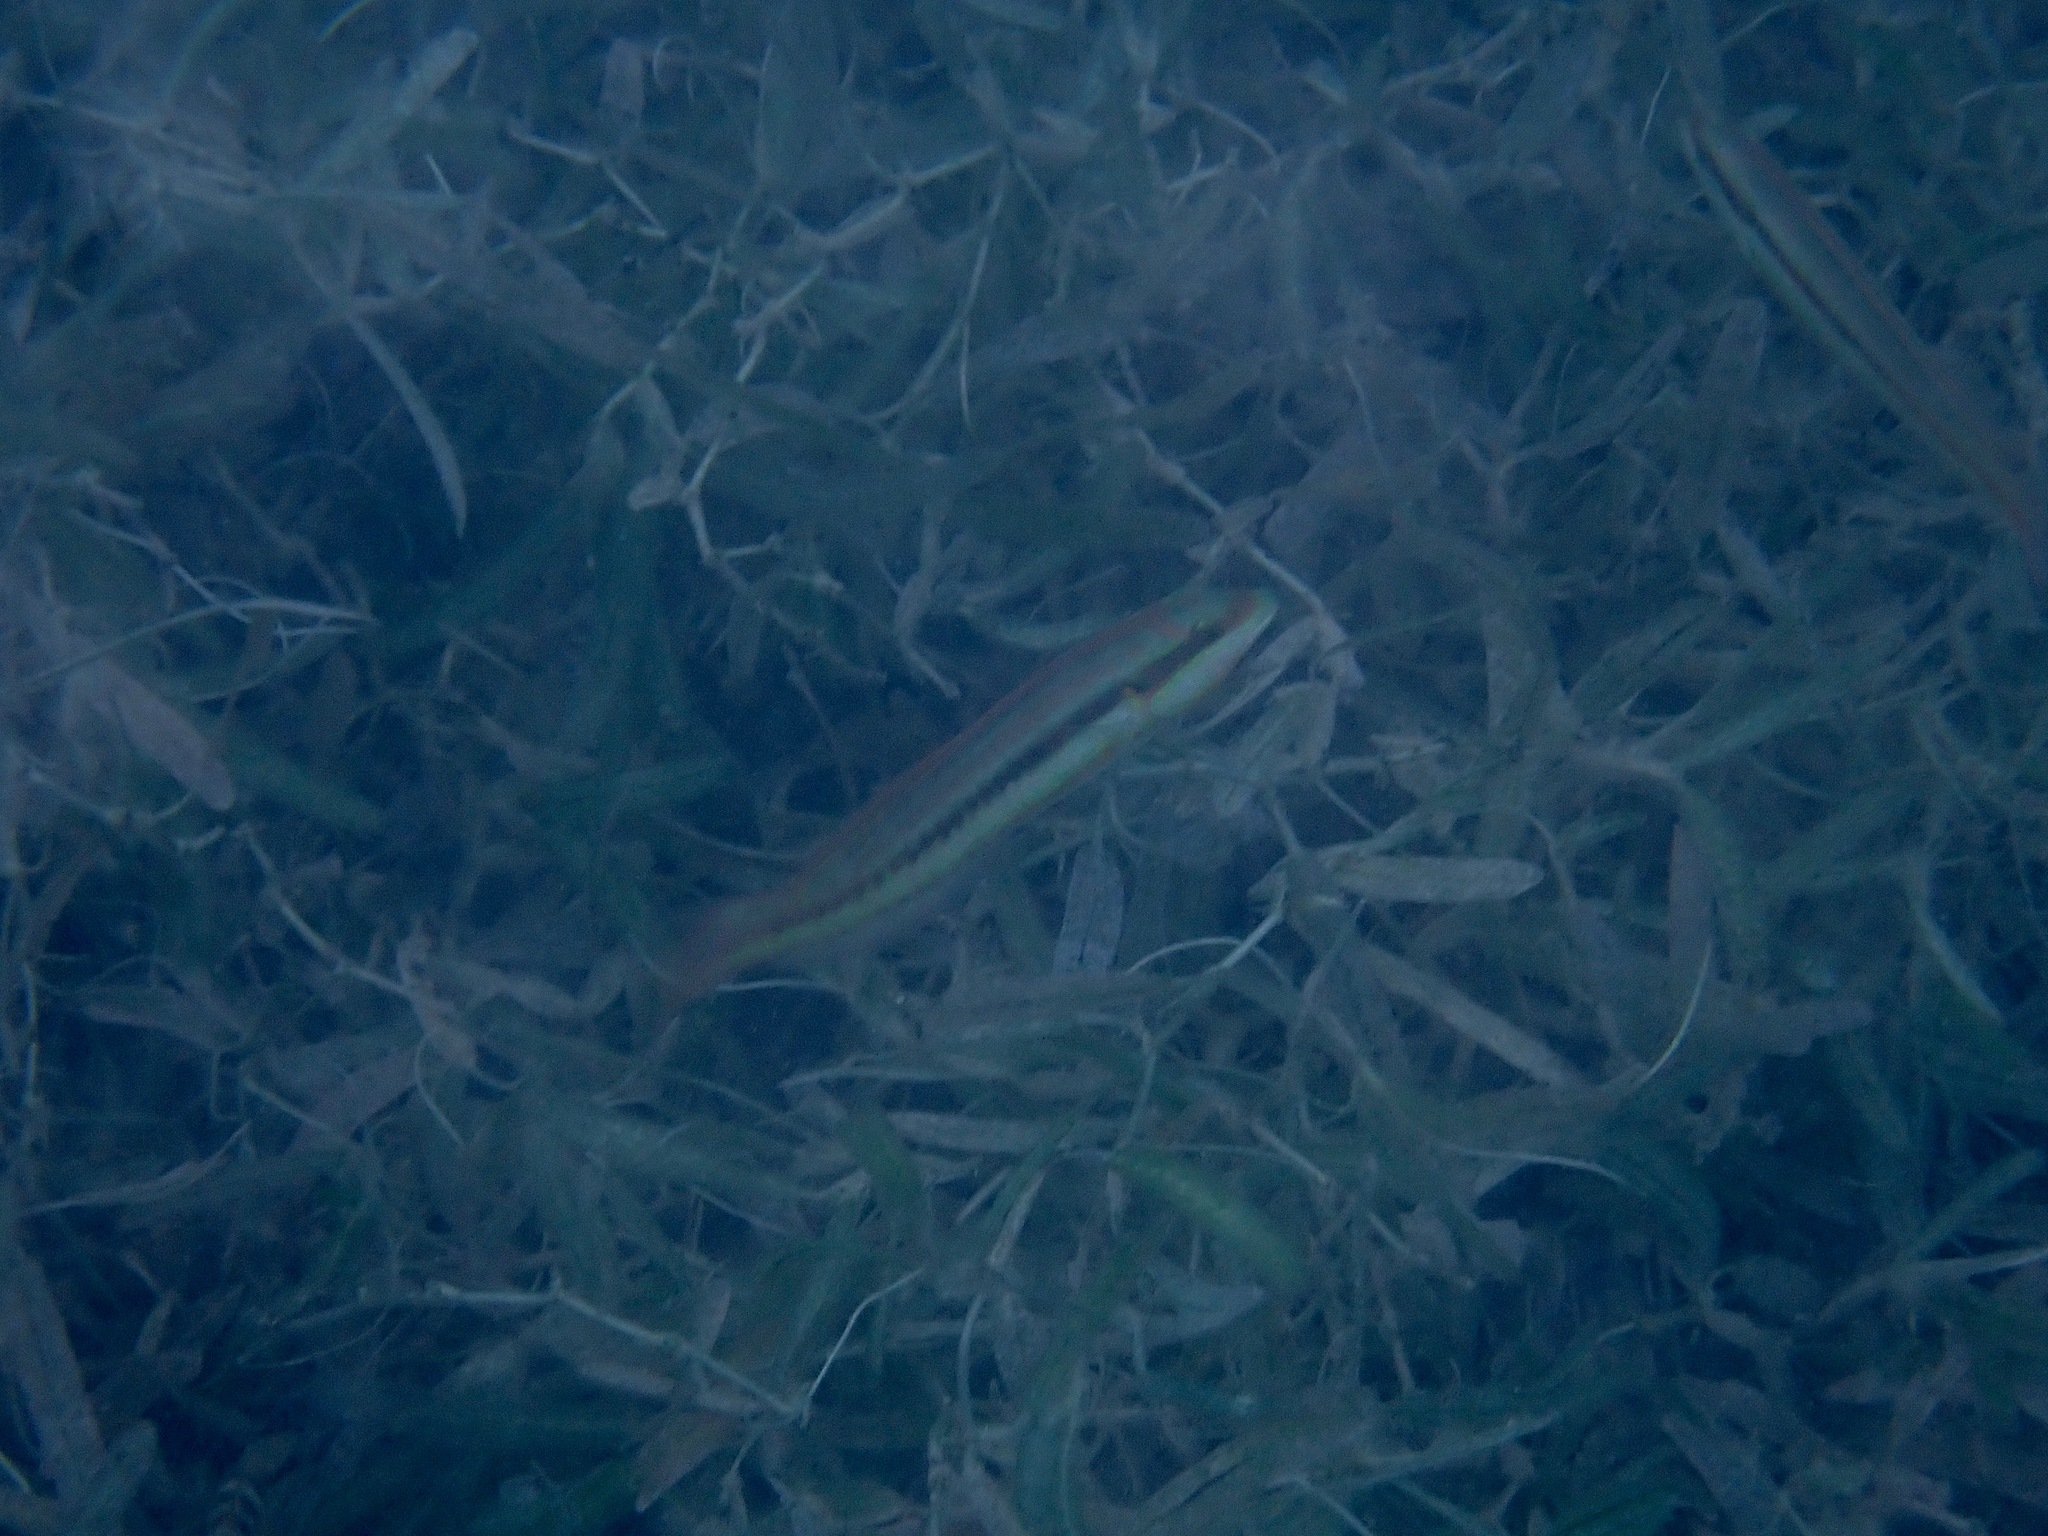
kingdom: Animalia
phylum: Chordata
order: Perciformes
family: Labridae
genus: Halichoeres
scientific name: Halichoeres bivittatus
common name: Slippery dick
